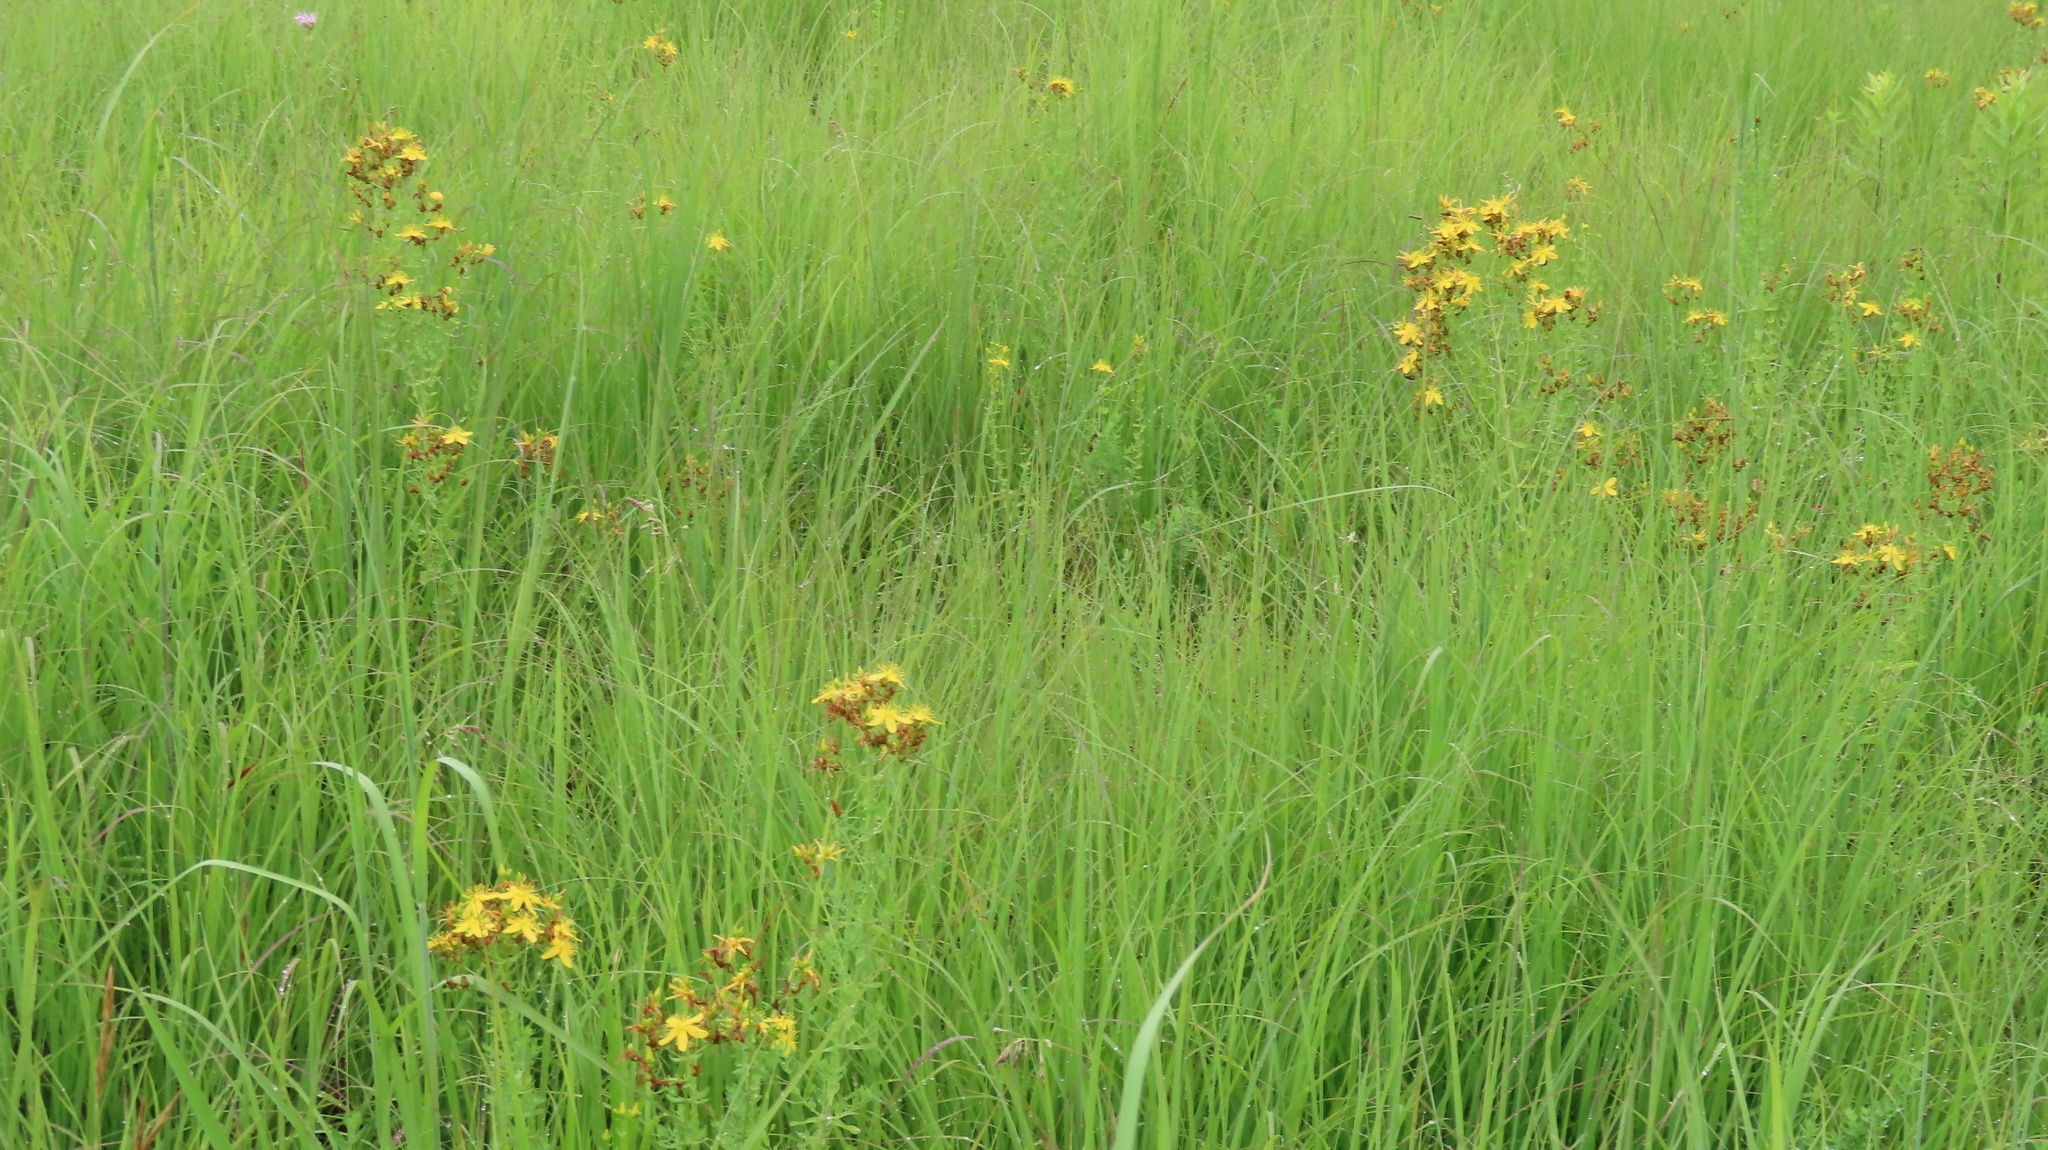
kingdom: Plantae
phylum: Tracheophyta
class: Magnoliopsida
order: Malpighiales
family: Hypericaceae
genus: Hypericum
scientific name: Hypericum perforatum
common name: Common st. johnswort
